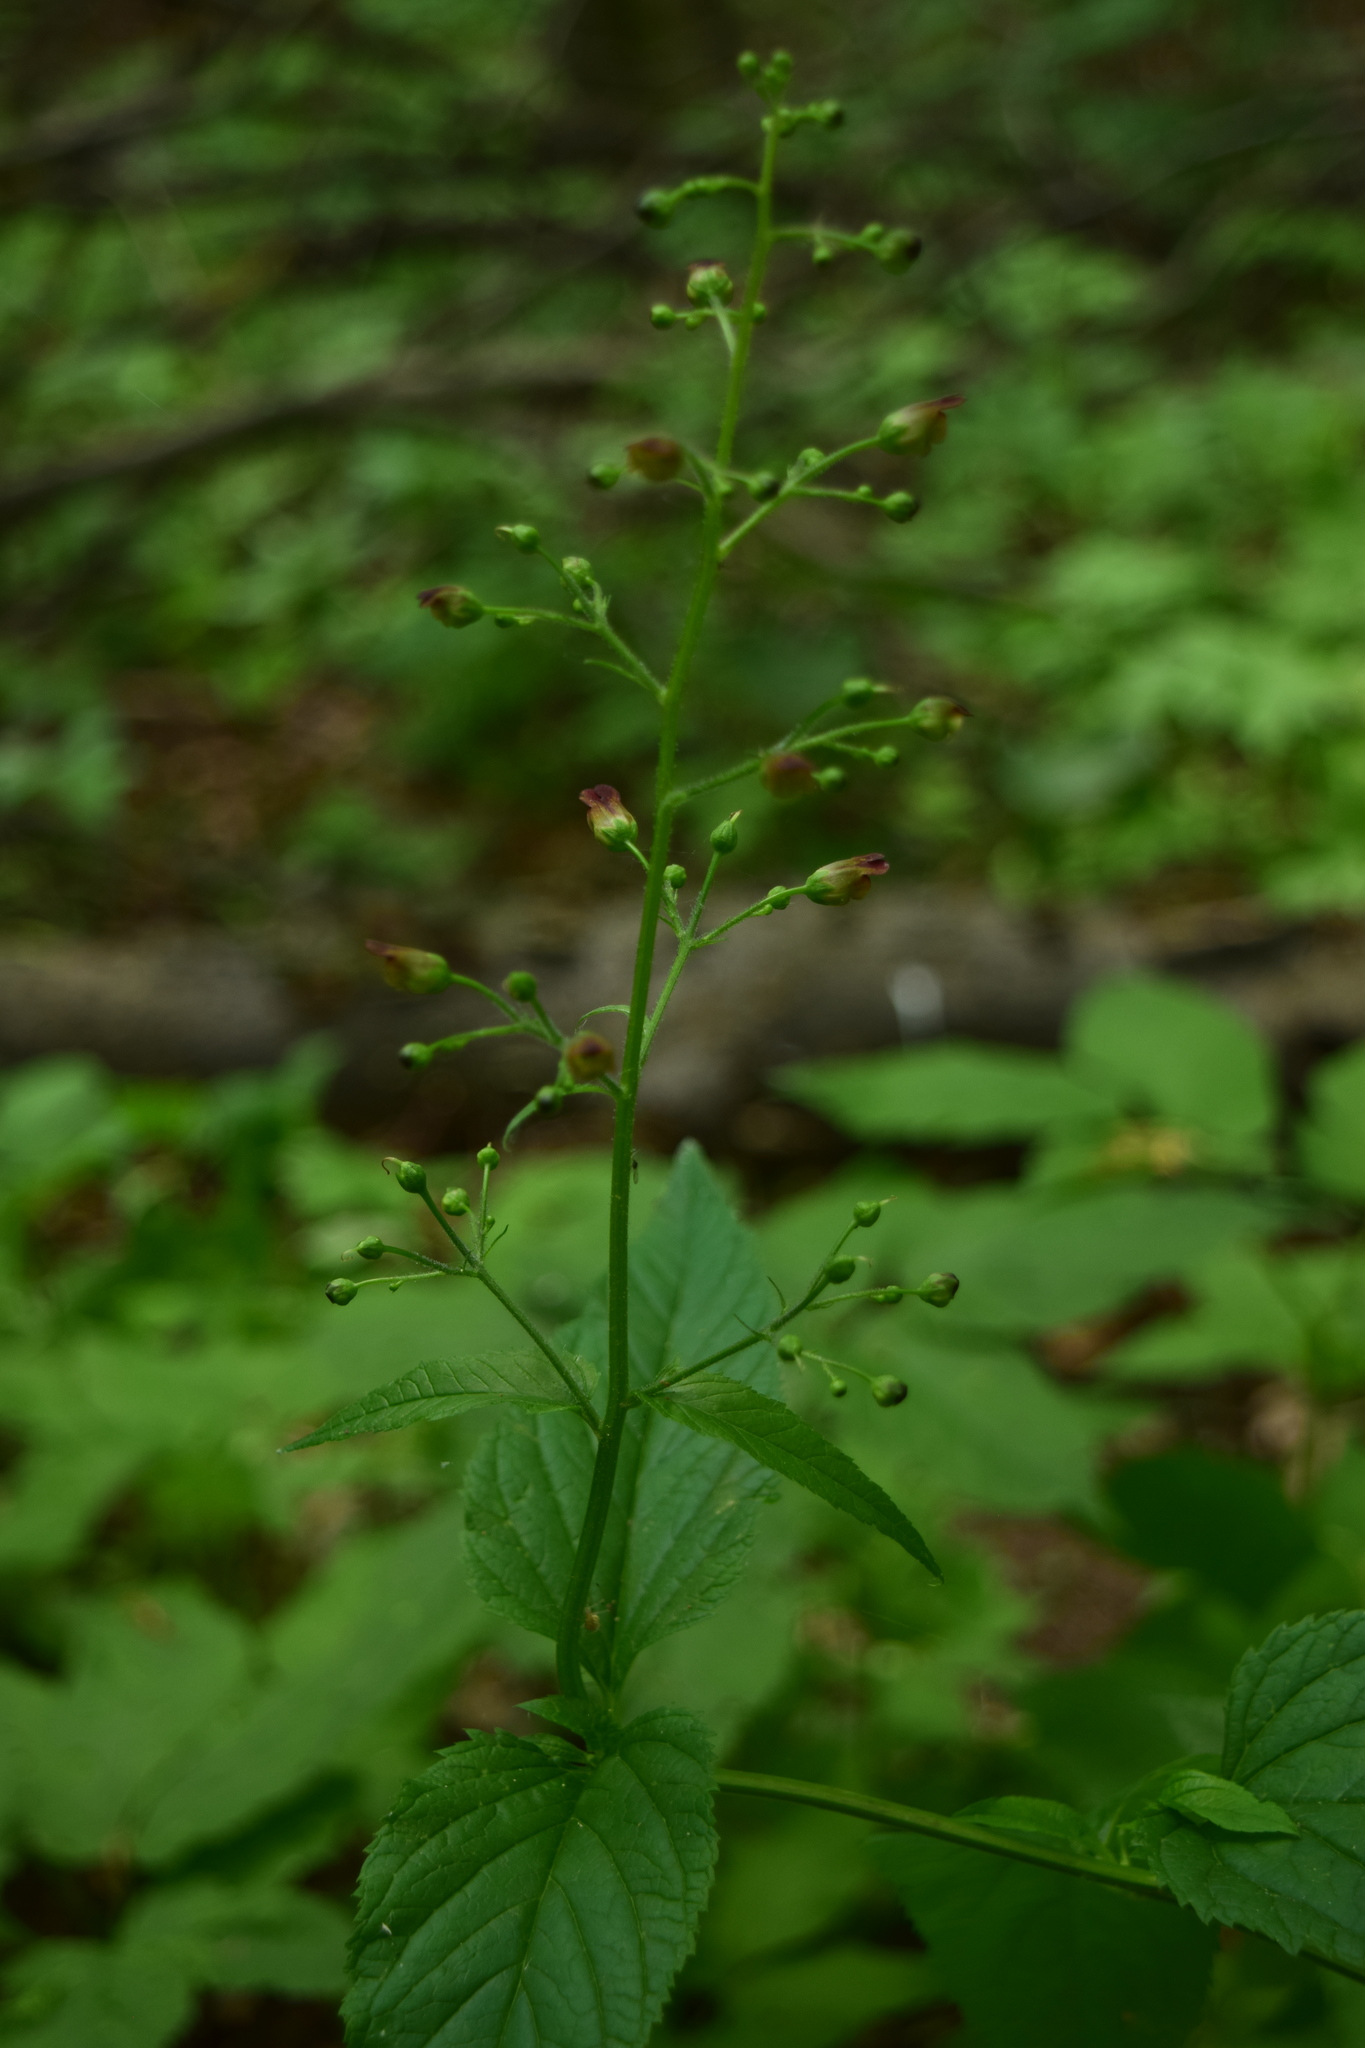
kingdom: Plantae
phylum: Tracheophyta
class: Magnoliopsida
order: Lamiales
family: Scrophulariaceae
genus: Scrophularia
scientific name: Scrophularia nodosa
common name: Common figwort
